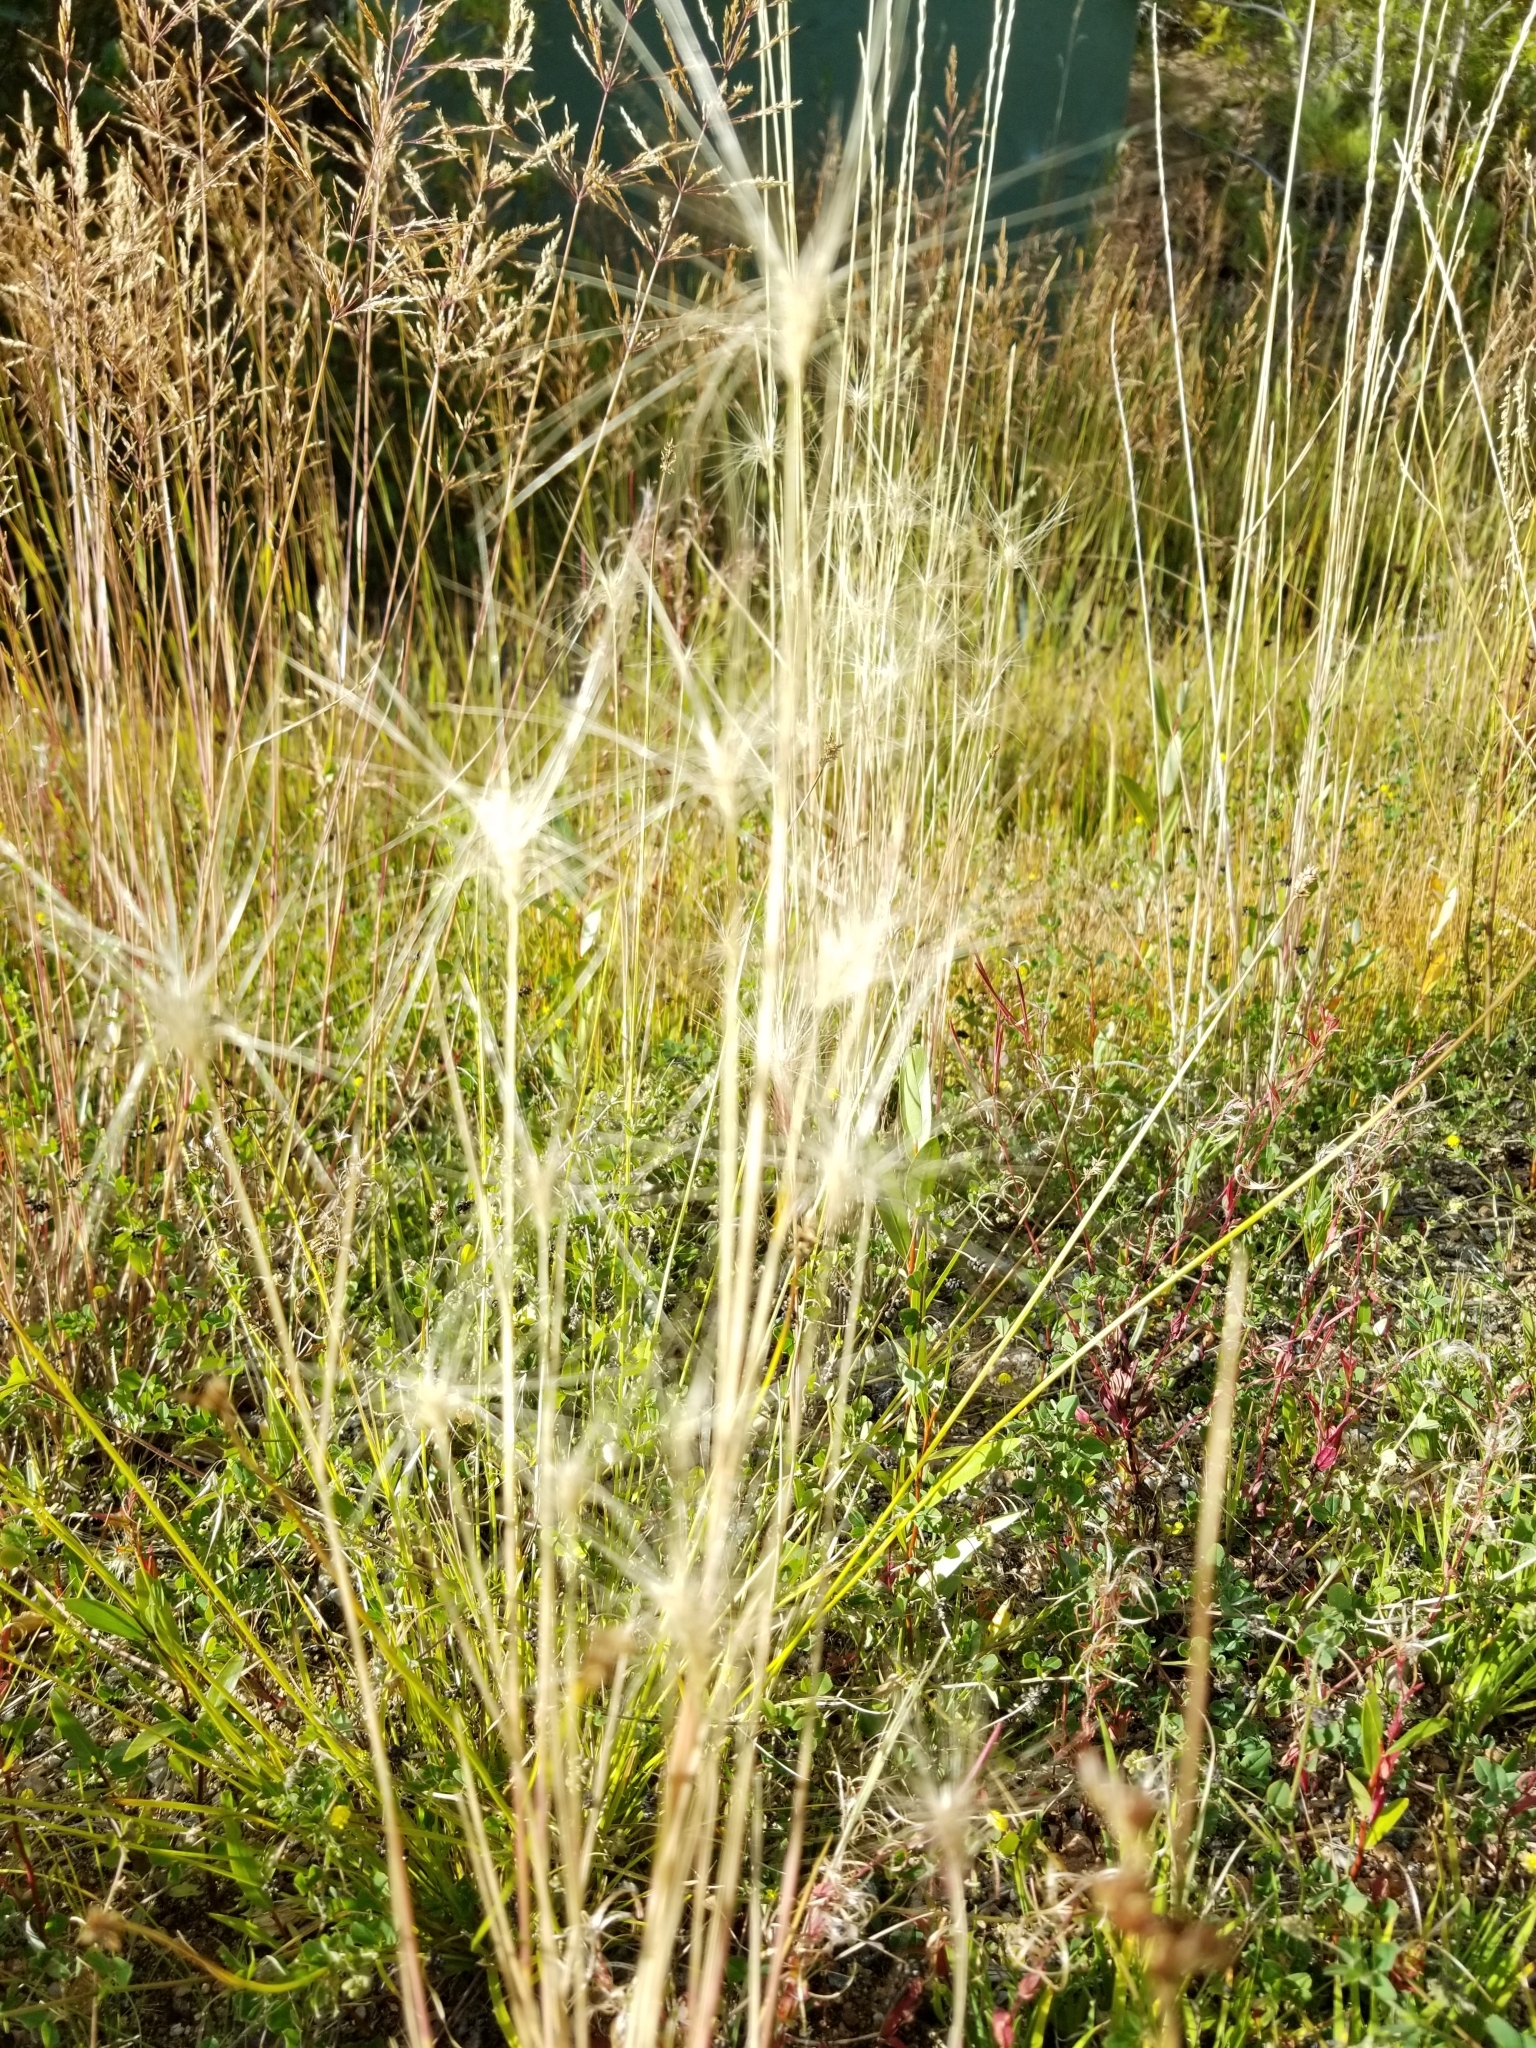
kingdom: Plantae
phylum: Tracheophyta
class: Liliopsida
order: Poales
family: Poaceae
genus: Hordeum
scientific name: Hordeum jubatum
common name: Foxtail barley
